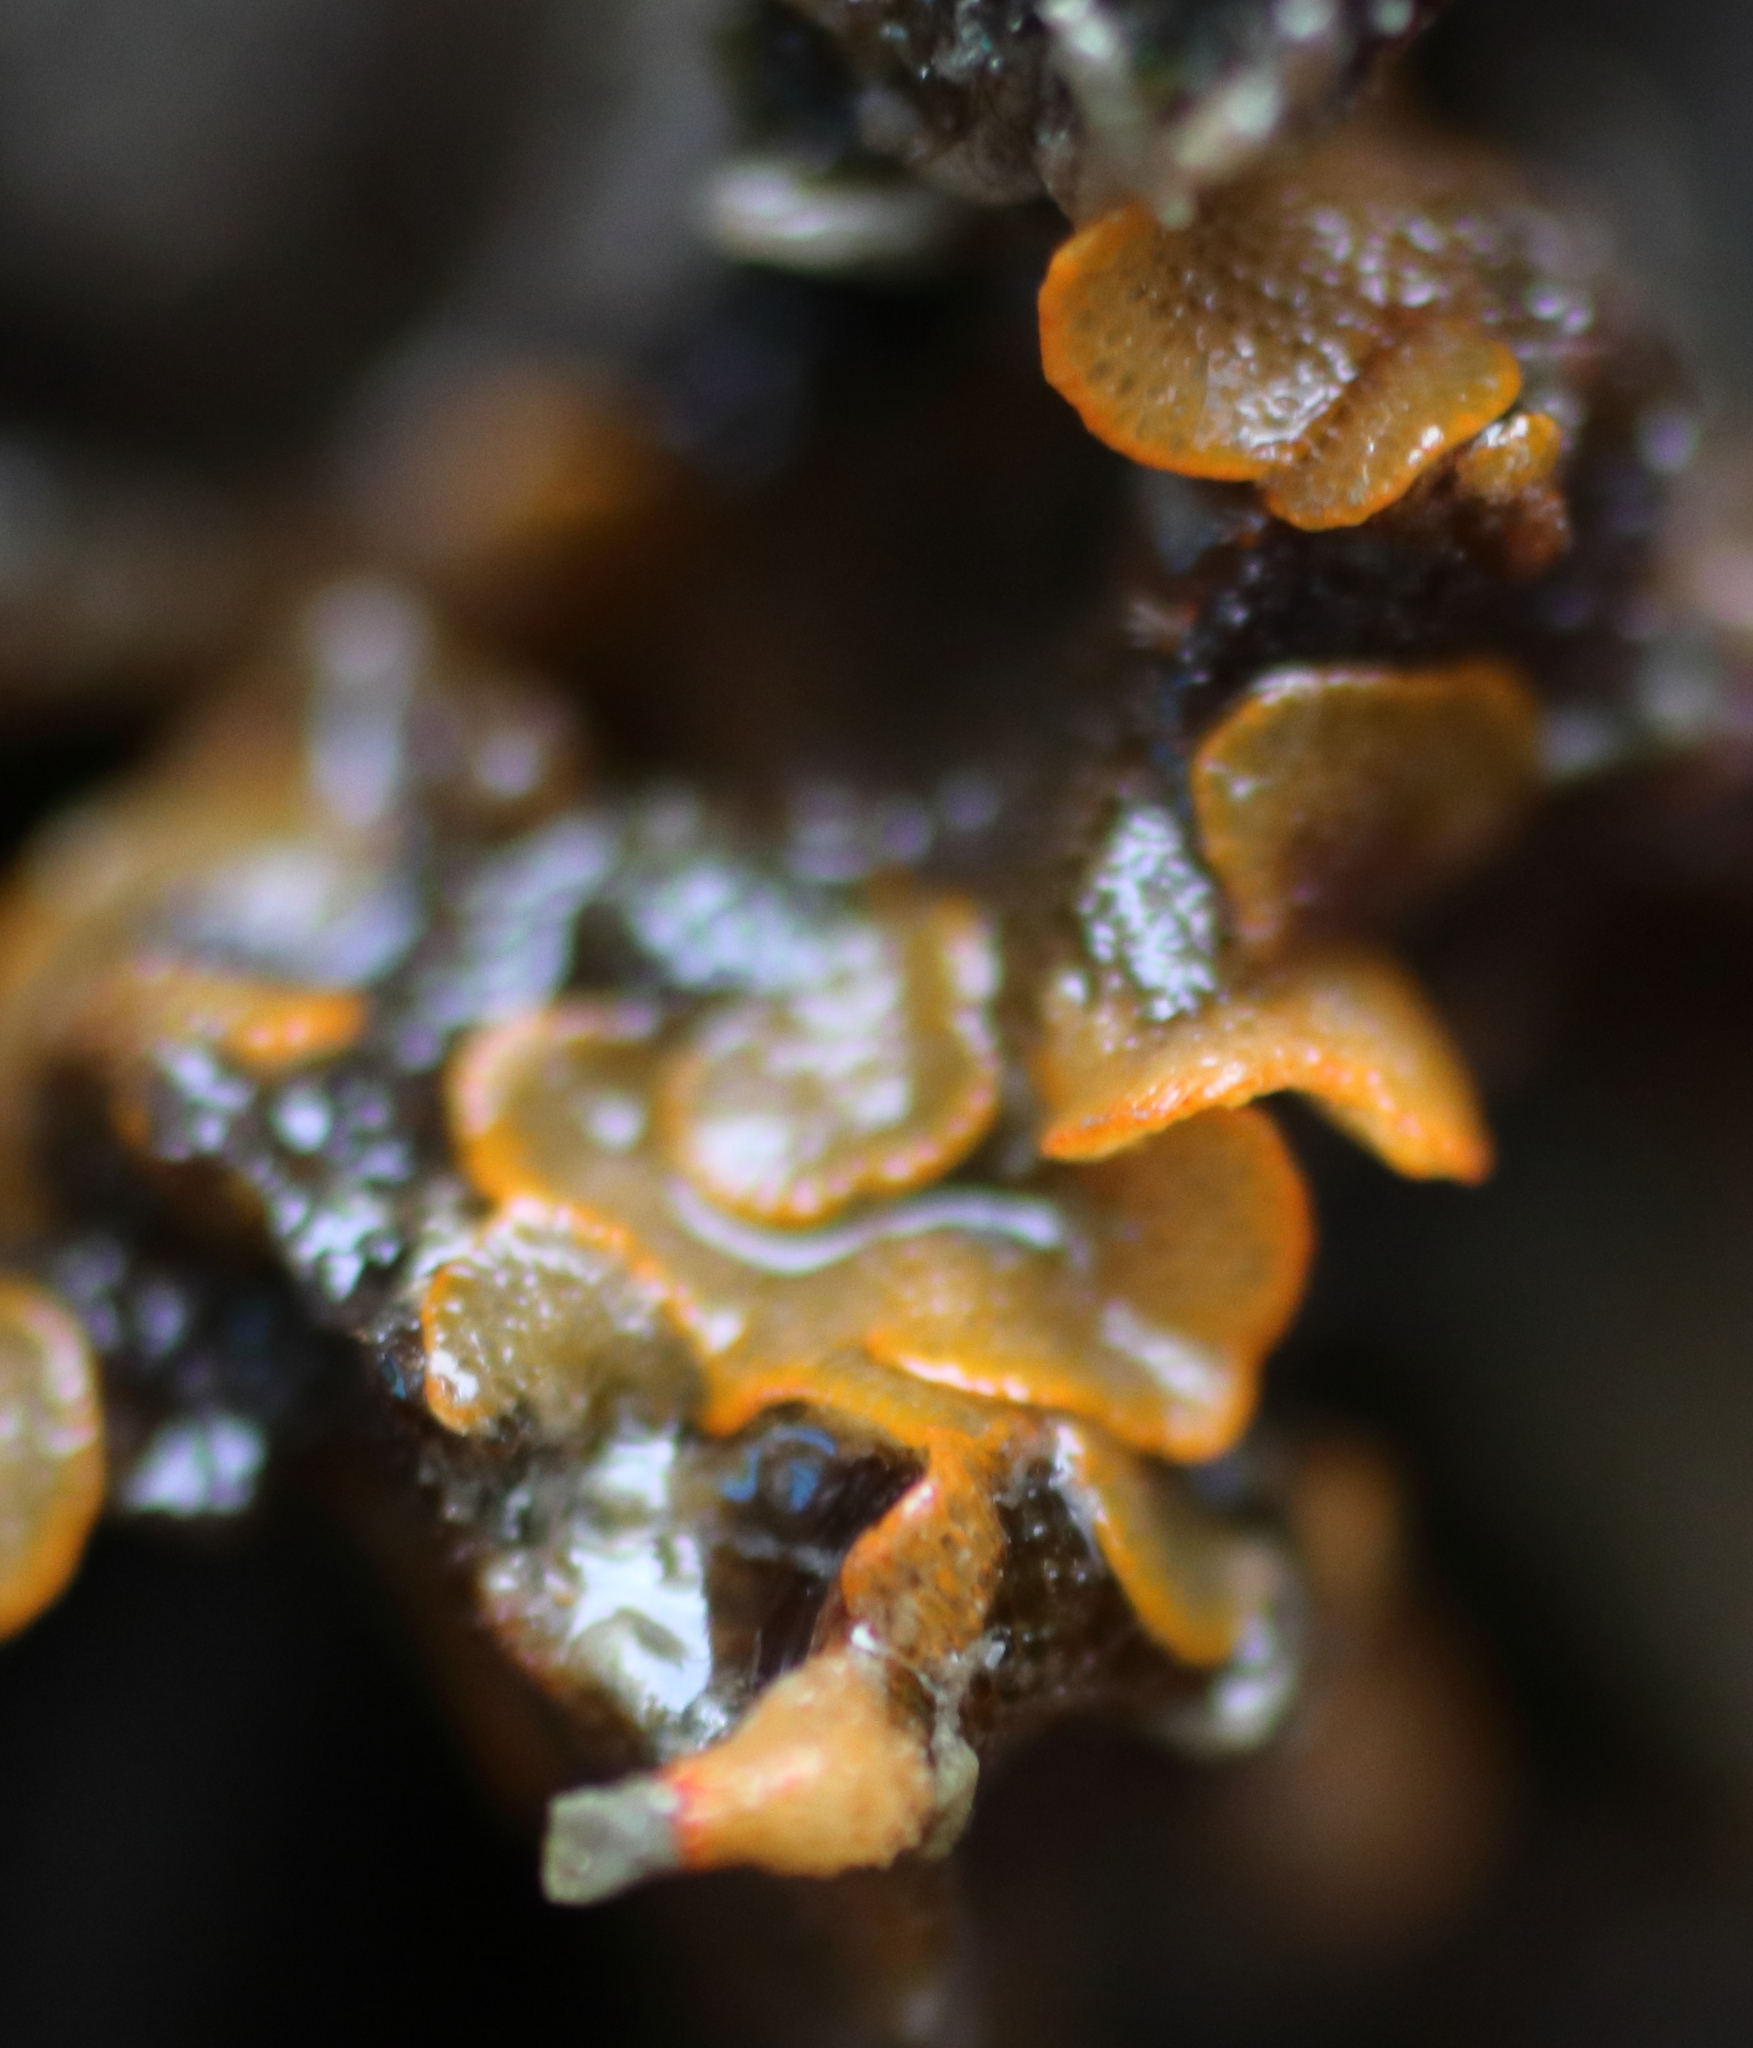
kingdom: Animalia
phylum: Bryozoa
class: Gymnolaemata
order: Cheilostomatida
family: Pacificincolidae
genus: Primavelans
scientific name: Primavelans insculpta
